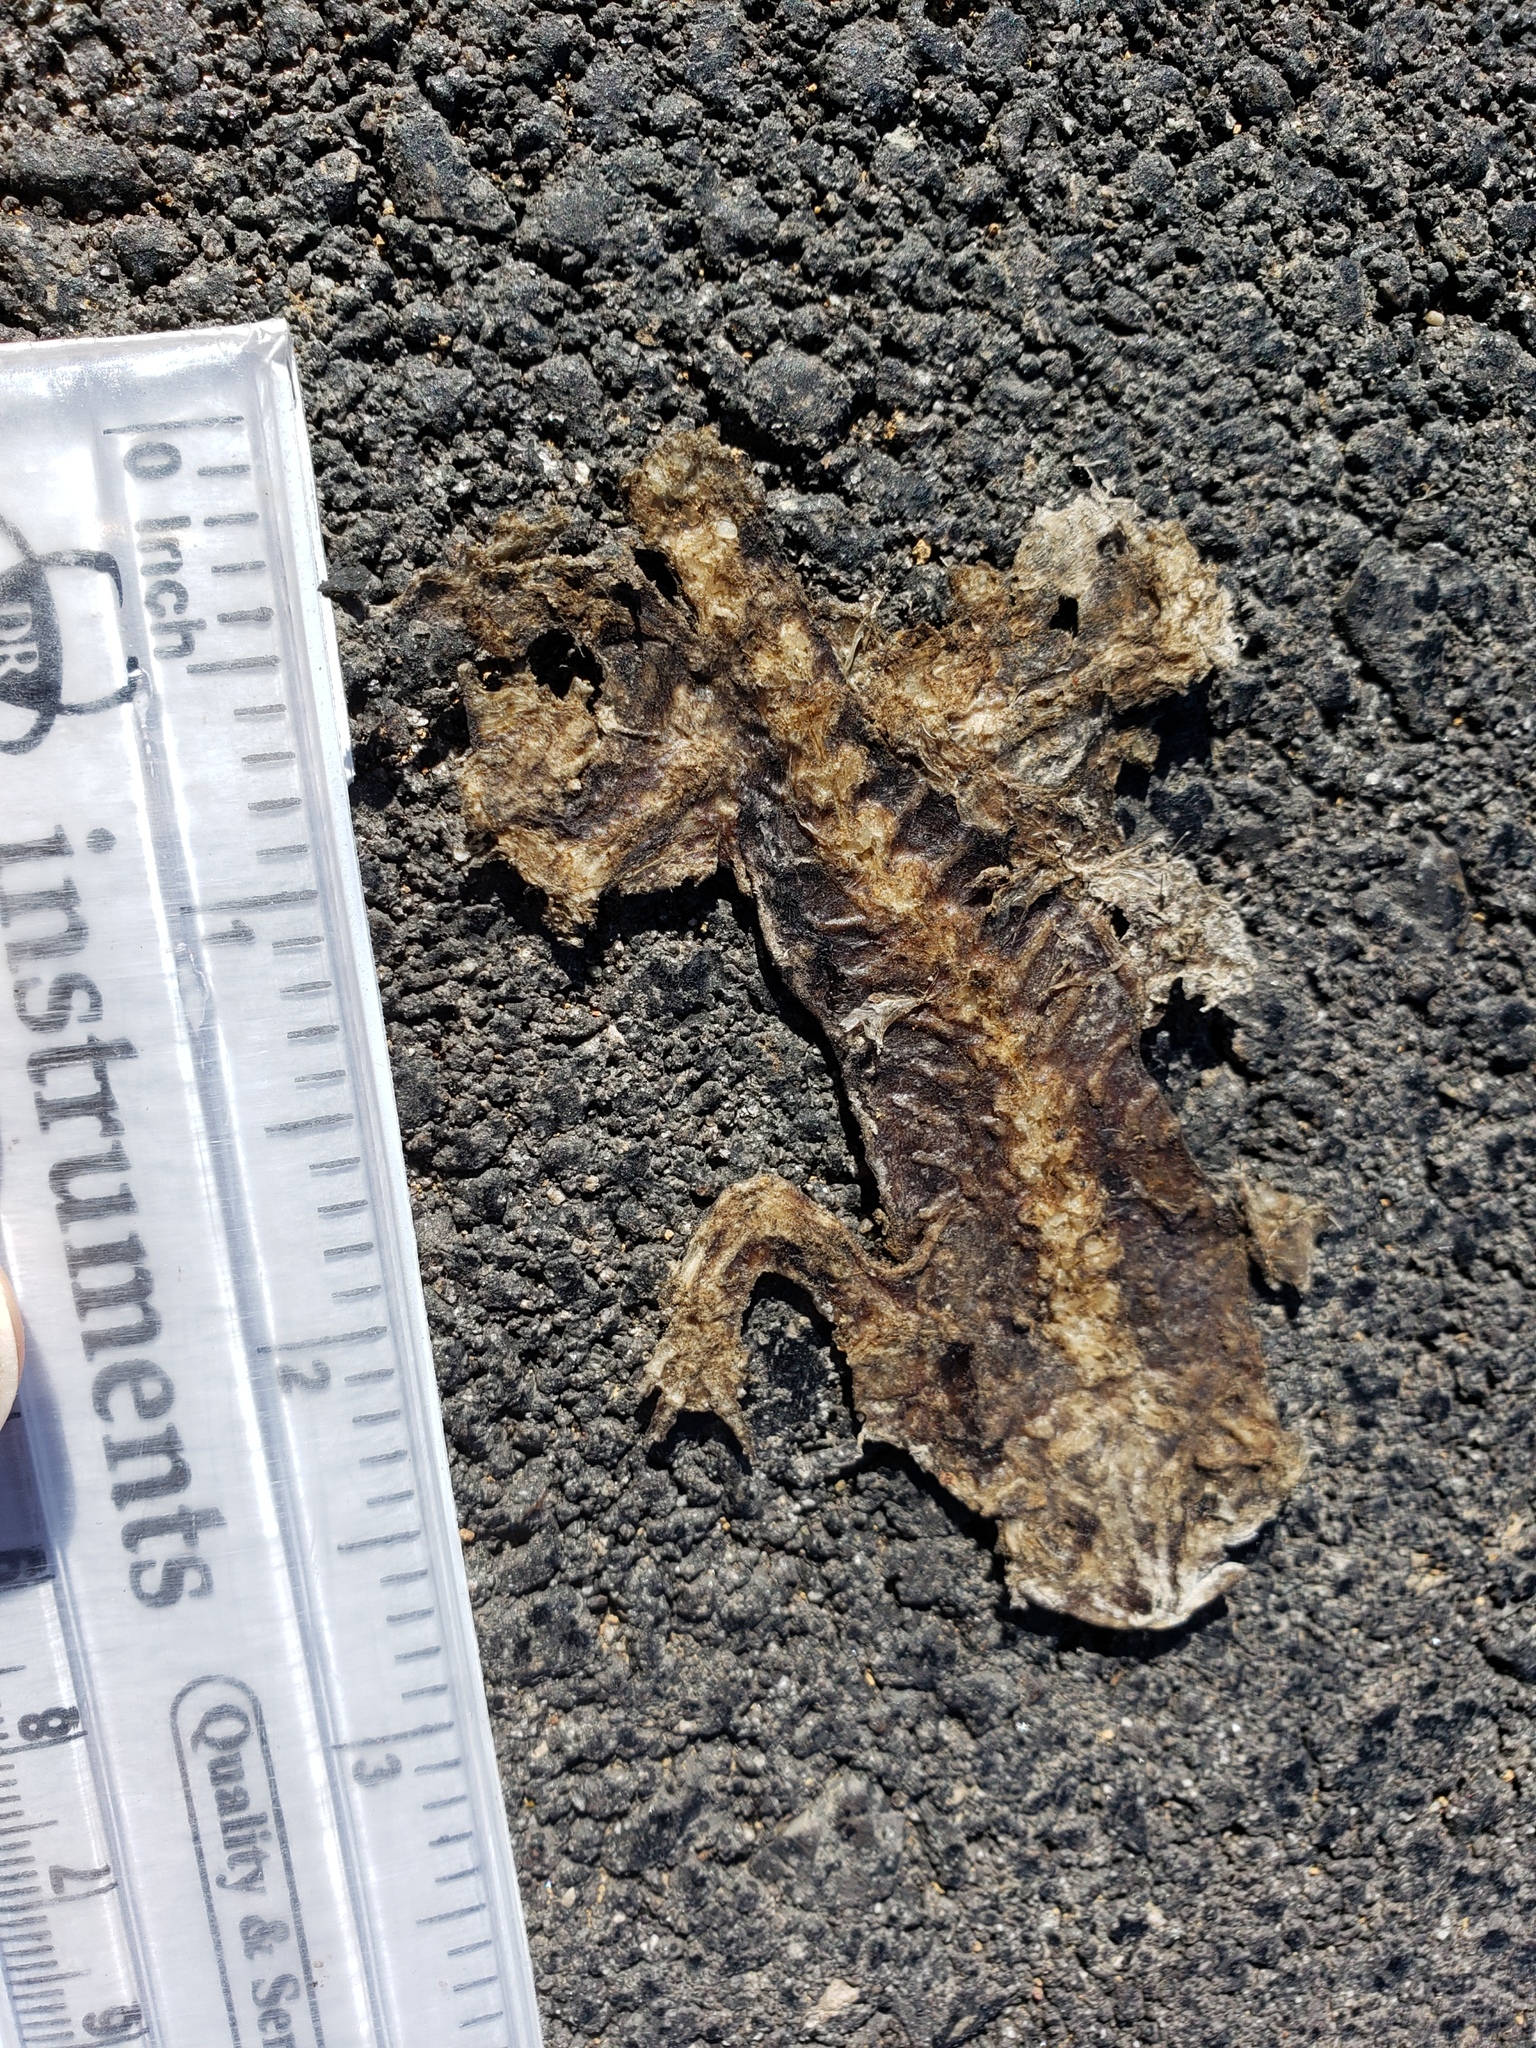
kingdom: Animalia
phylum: Chordata
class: Amphibia
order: Caudata
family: Salamandridae
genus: Taricha
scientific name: Taricha
